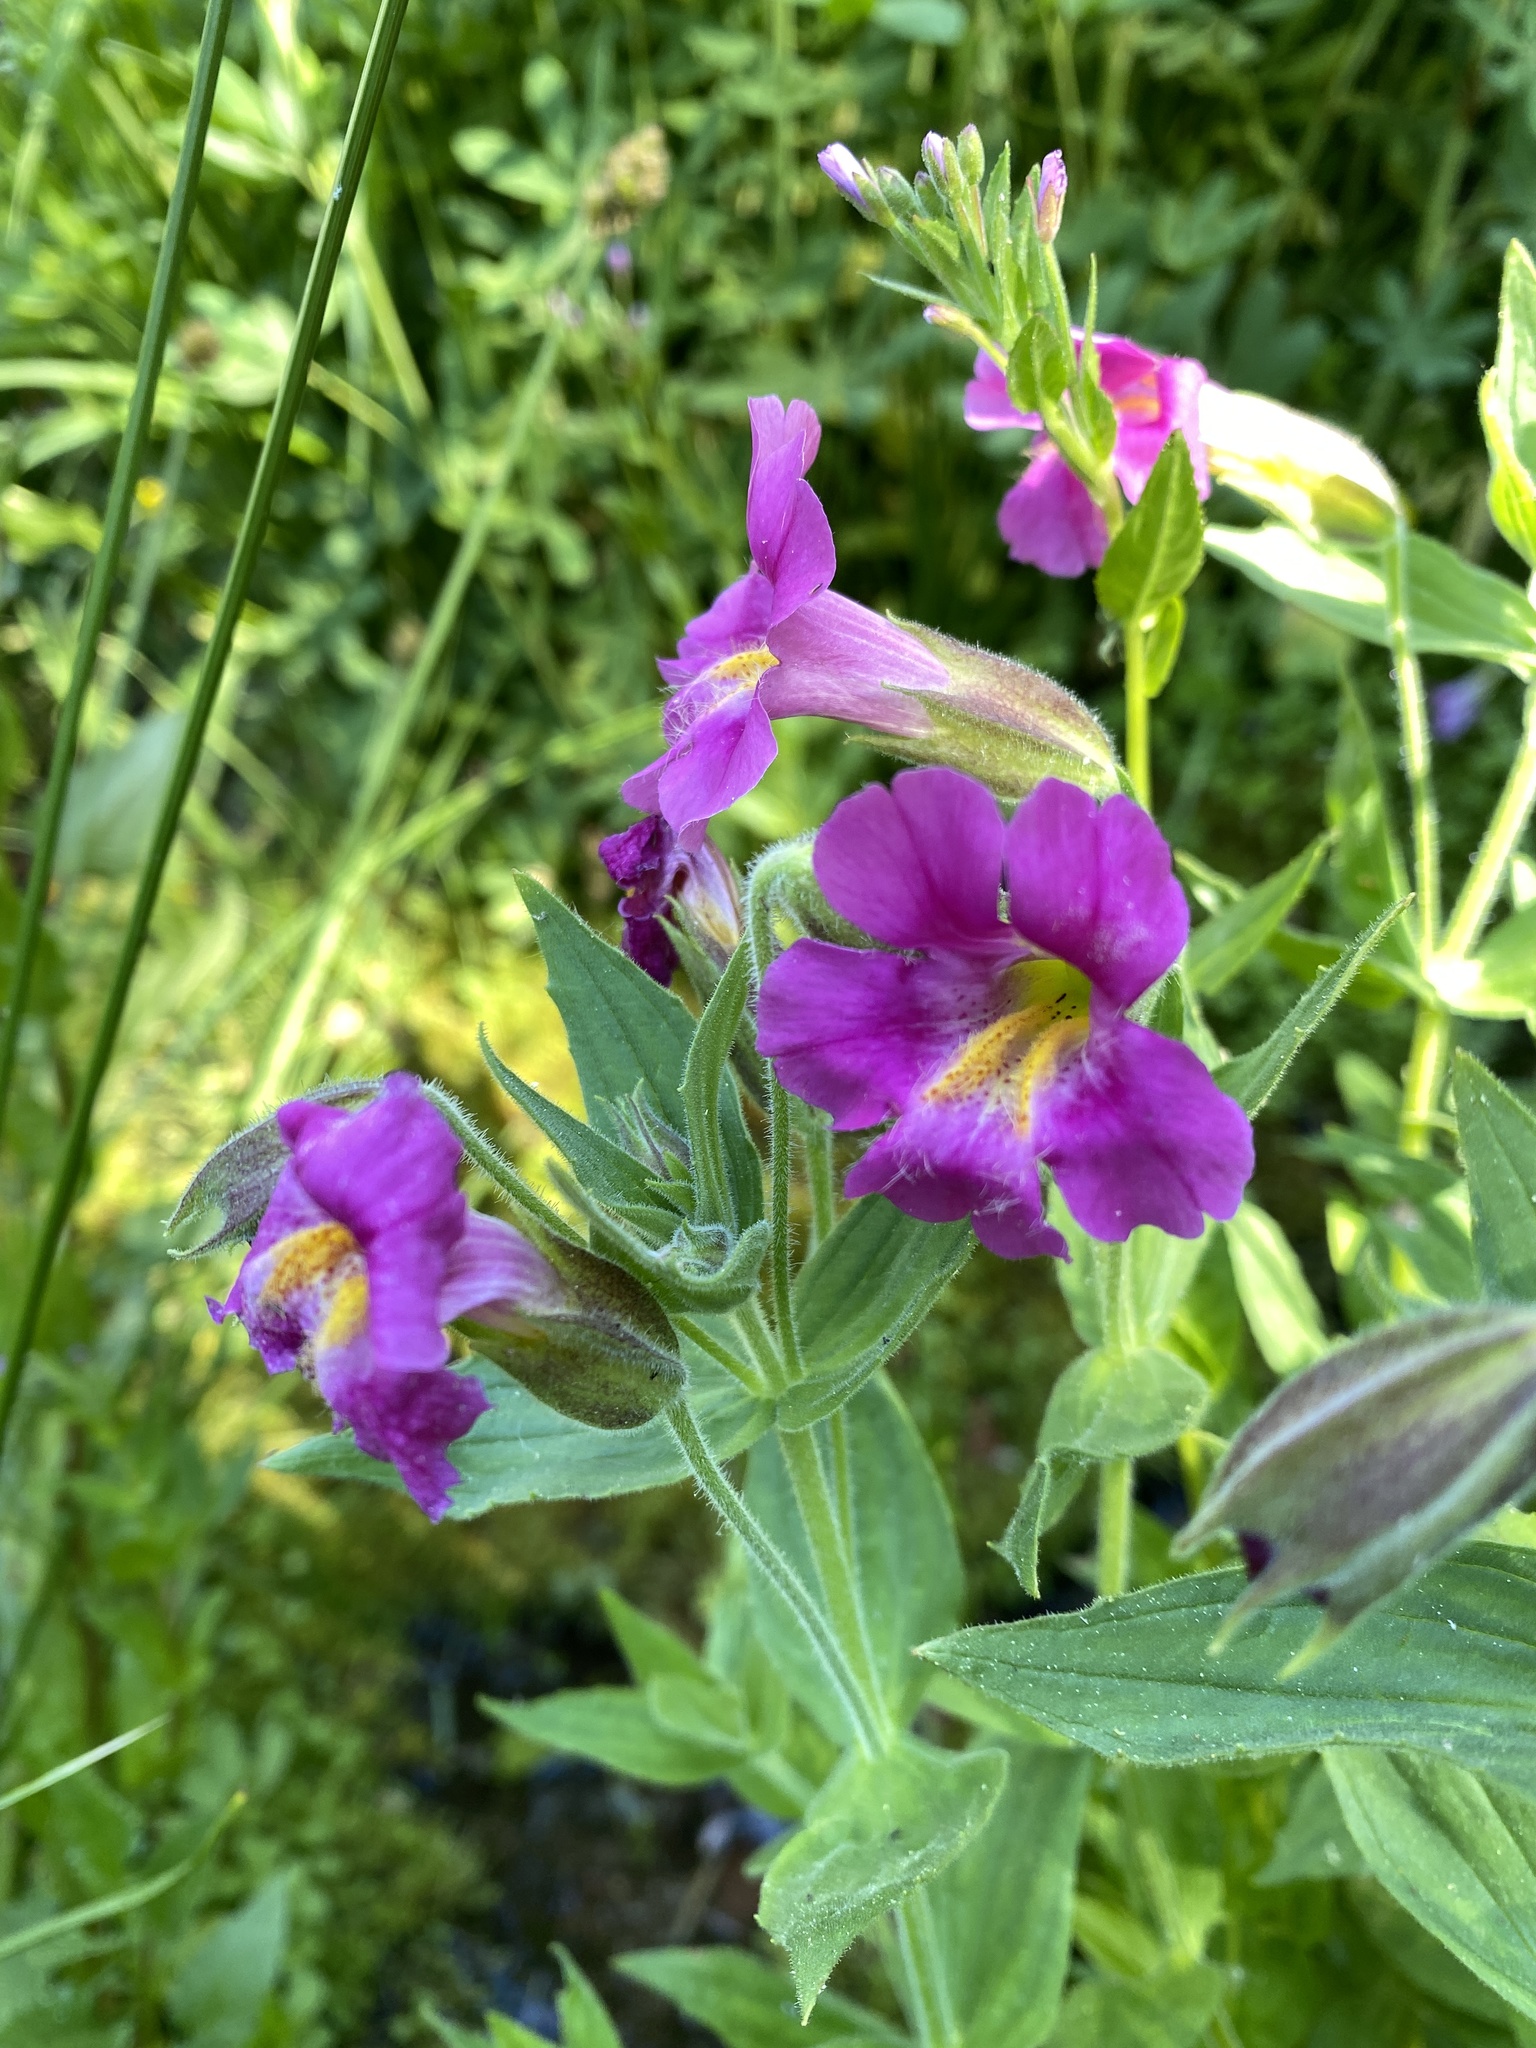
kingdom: Plantae
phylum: Tracheophyta
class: Magnoliopsida
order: Lamiales
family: Phrymaceae
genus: Erythranthe
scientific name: Erythranthe lewisii
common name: Lewis's monkey-flower
